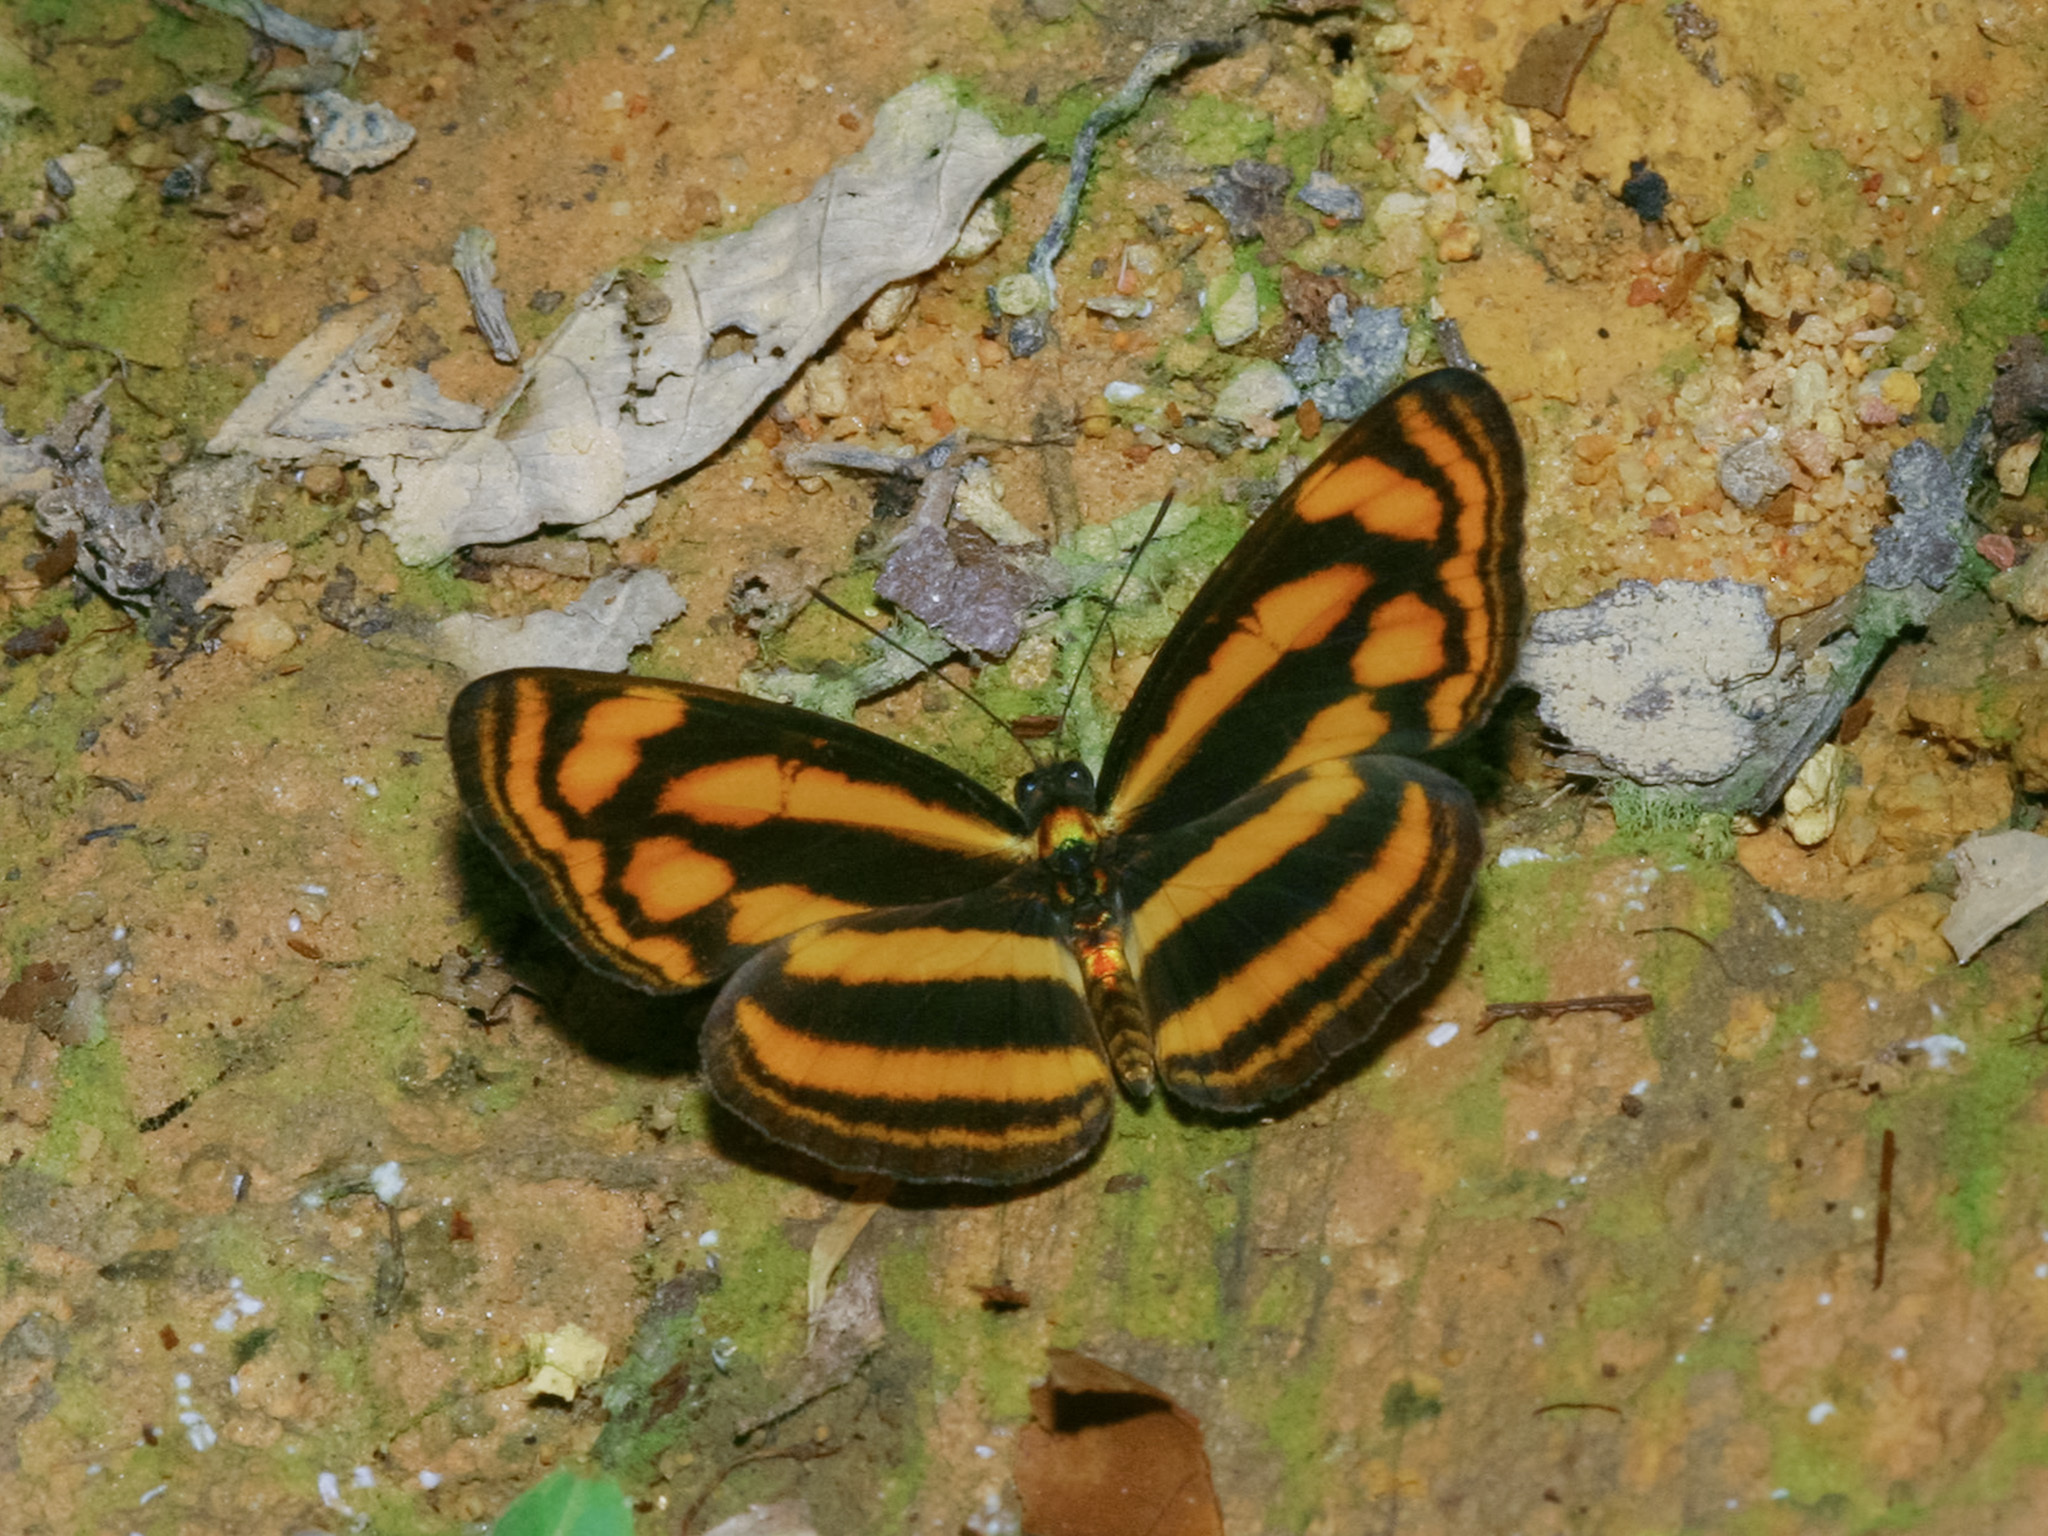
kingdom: Animalia
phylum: Arthropoda
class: Insecta
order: Lepidoptera
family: Nymphalidae
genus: Lasippa
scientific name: Lasippa tiga
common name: Malayan lascar
